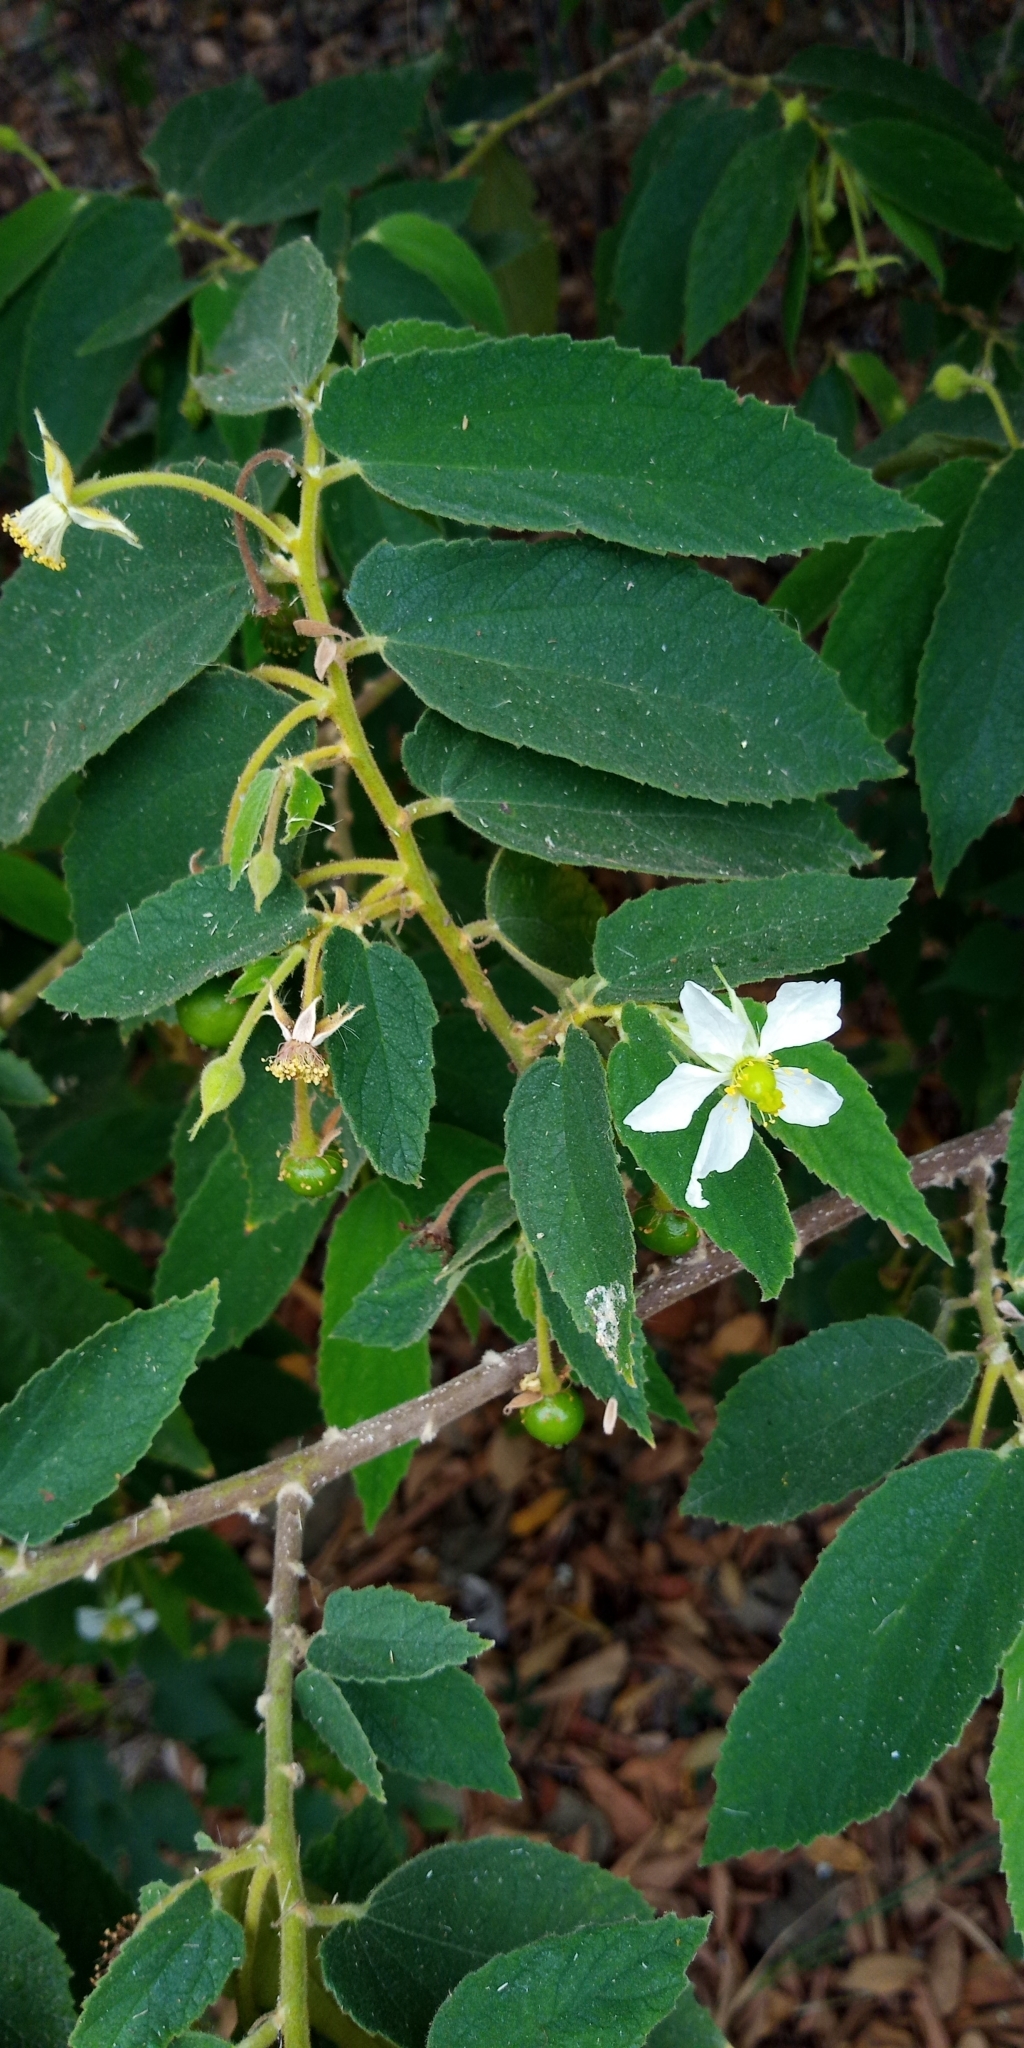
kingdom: Plantae
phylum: Tracheophyta
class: Magnoliopsida
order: Malvales
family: Muntingiaceae
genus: Muntingia
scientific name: Muntingia calabura
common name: Strawberrytree
